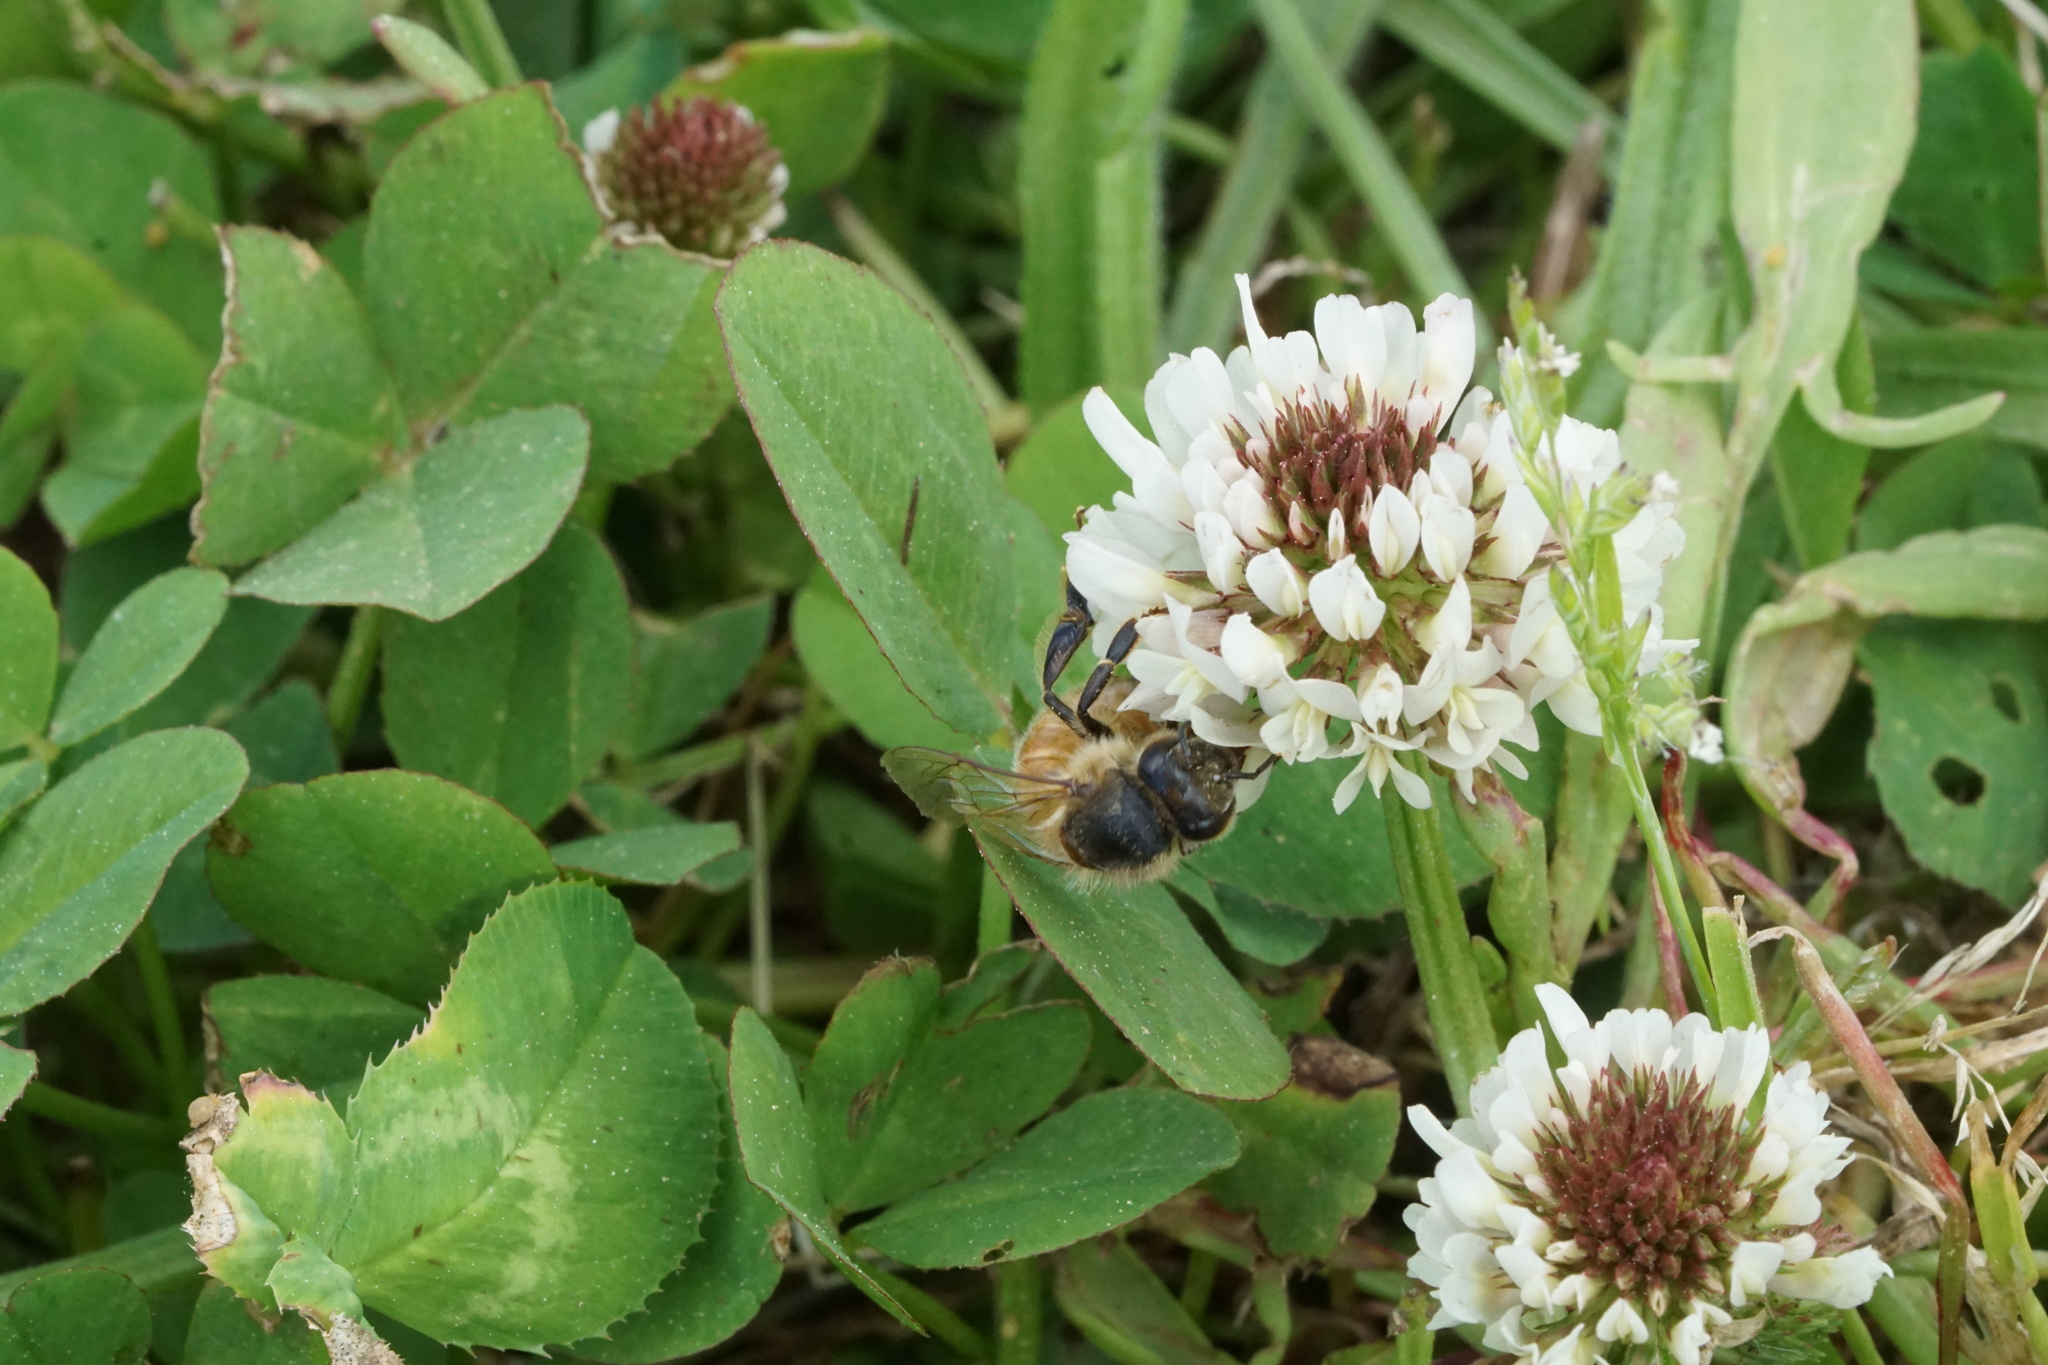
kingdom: Animalia
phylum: Arthropoda
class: Insecta
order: Hymenoptera
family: Apidae
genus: Apis
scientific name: Apis mellifera
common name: Honey bee
